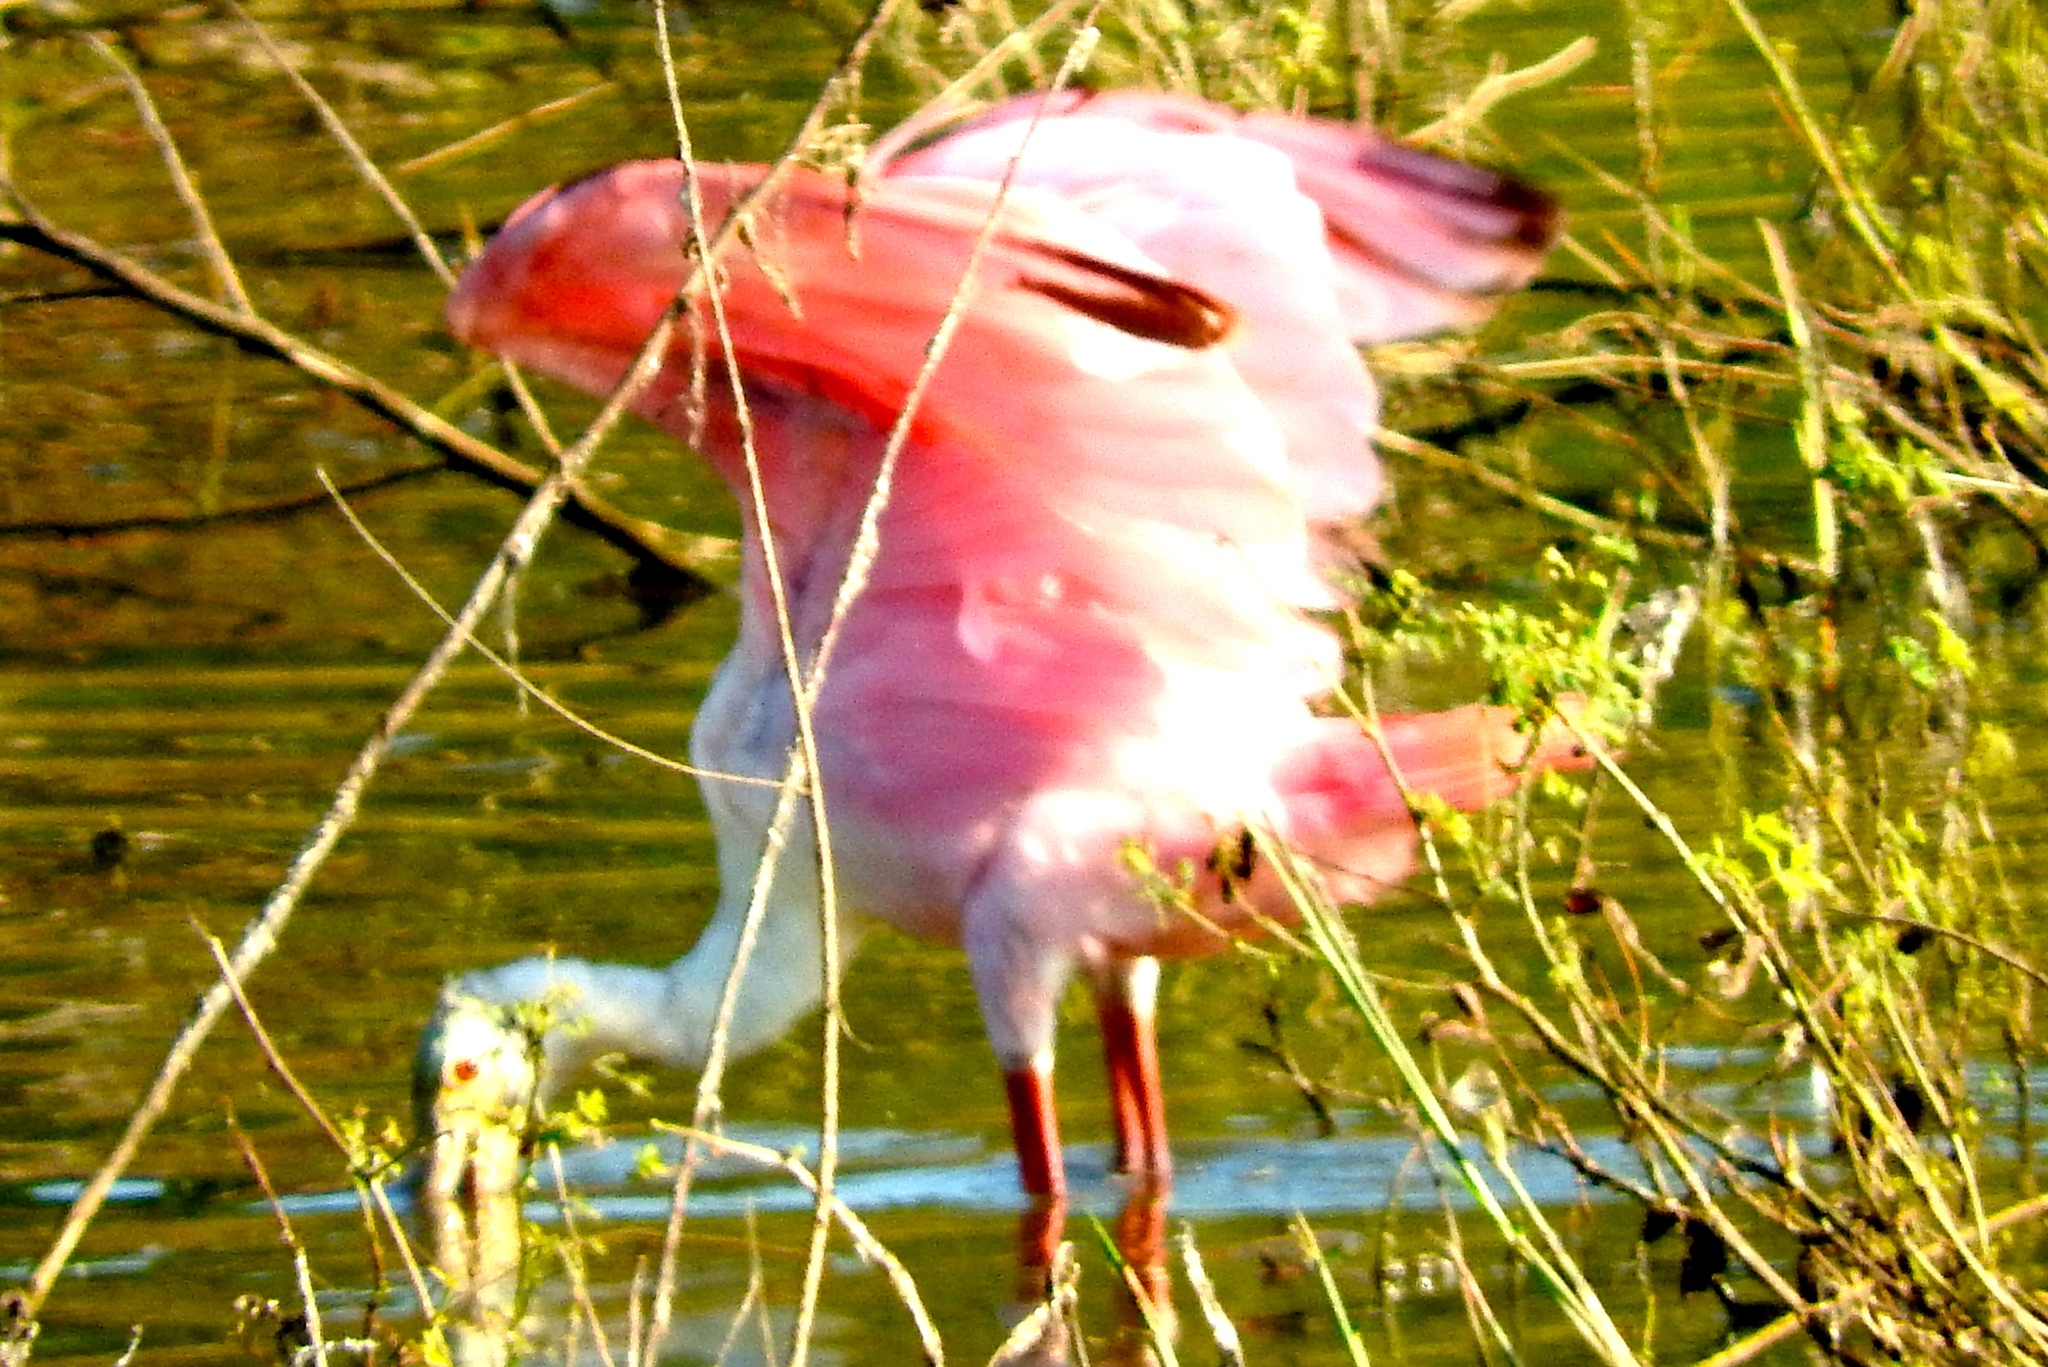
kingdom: Animalia
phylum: Chordata
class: Aves
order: Pelecaniformes
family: Threskiornithidae
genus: Platalea
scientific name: Platalea ajaja
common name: Roseate spoonbill
